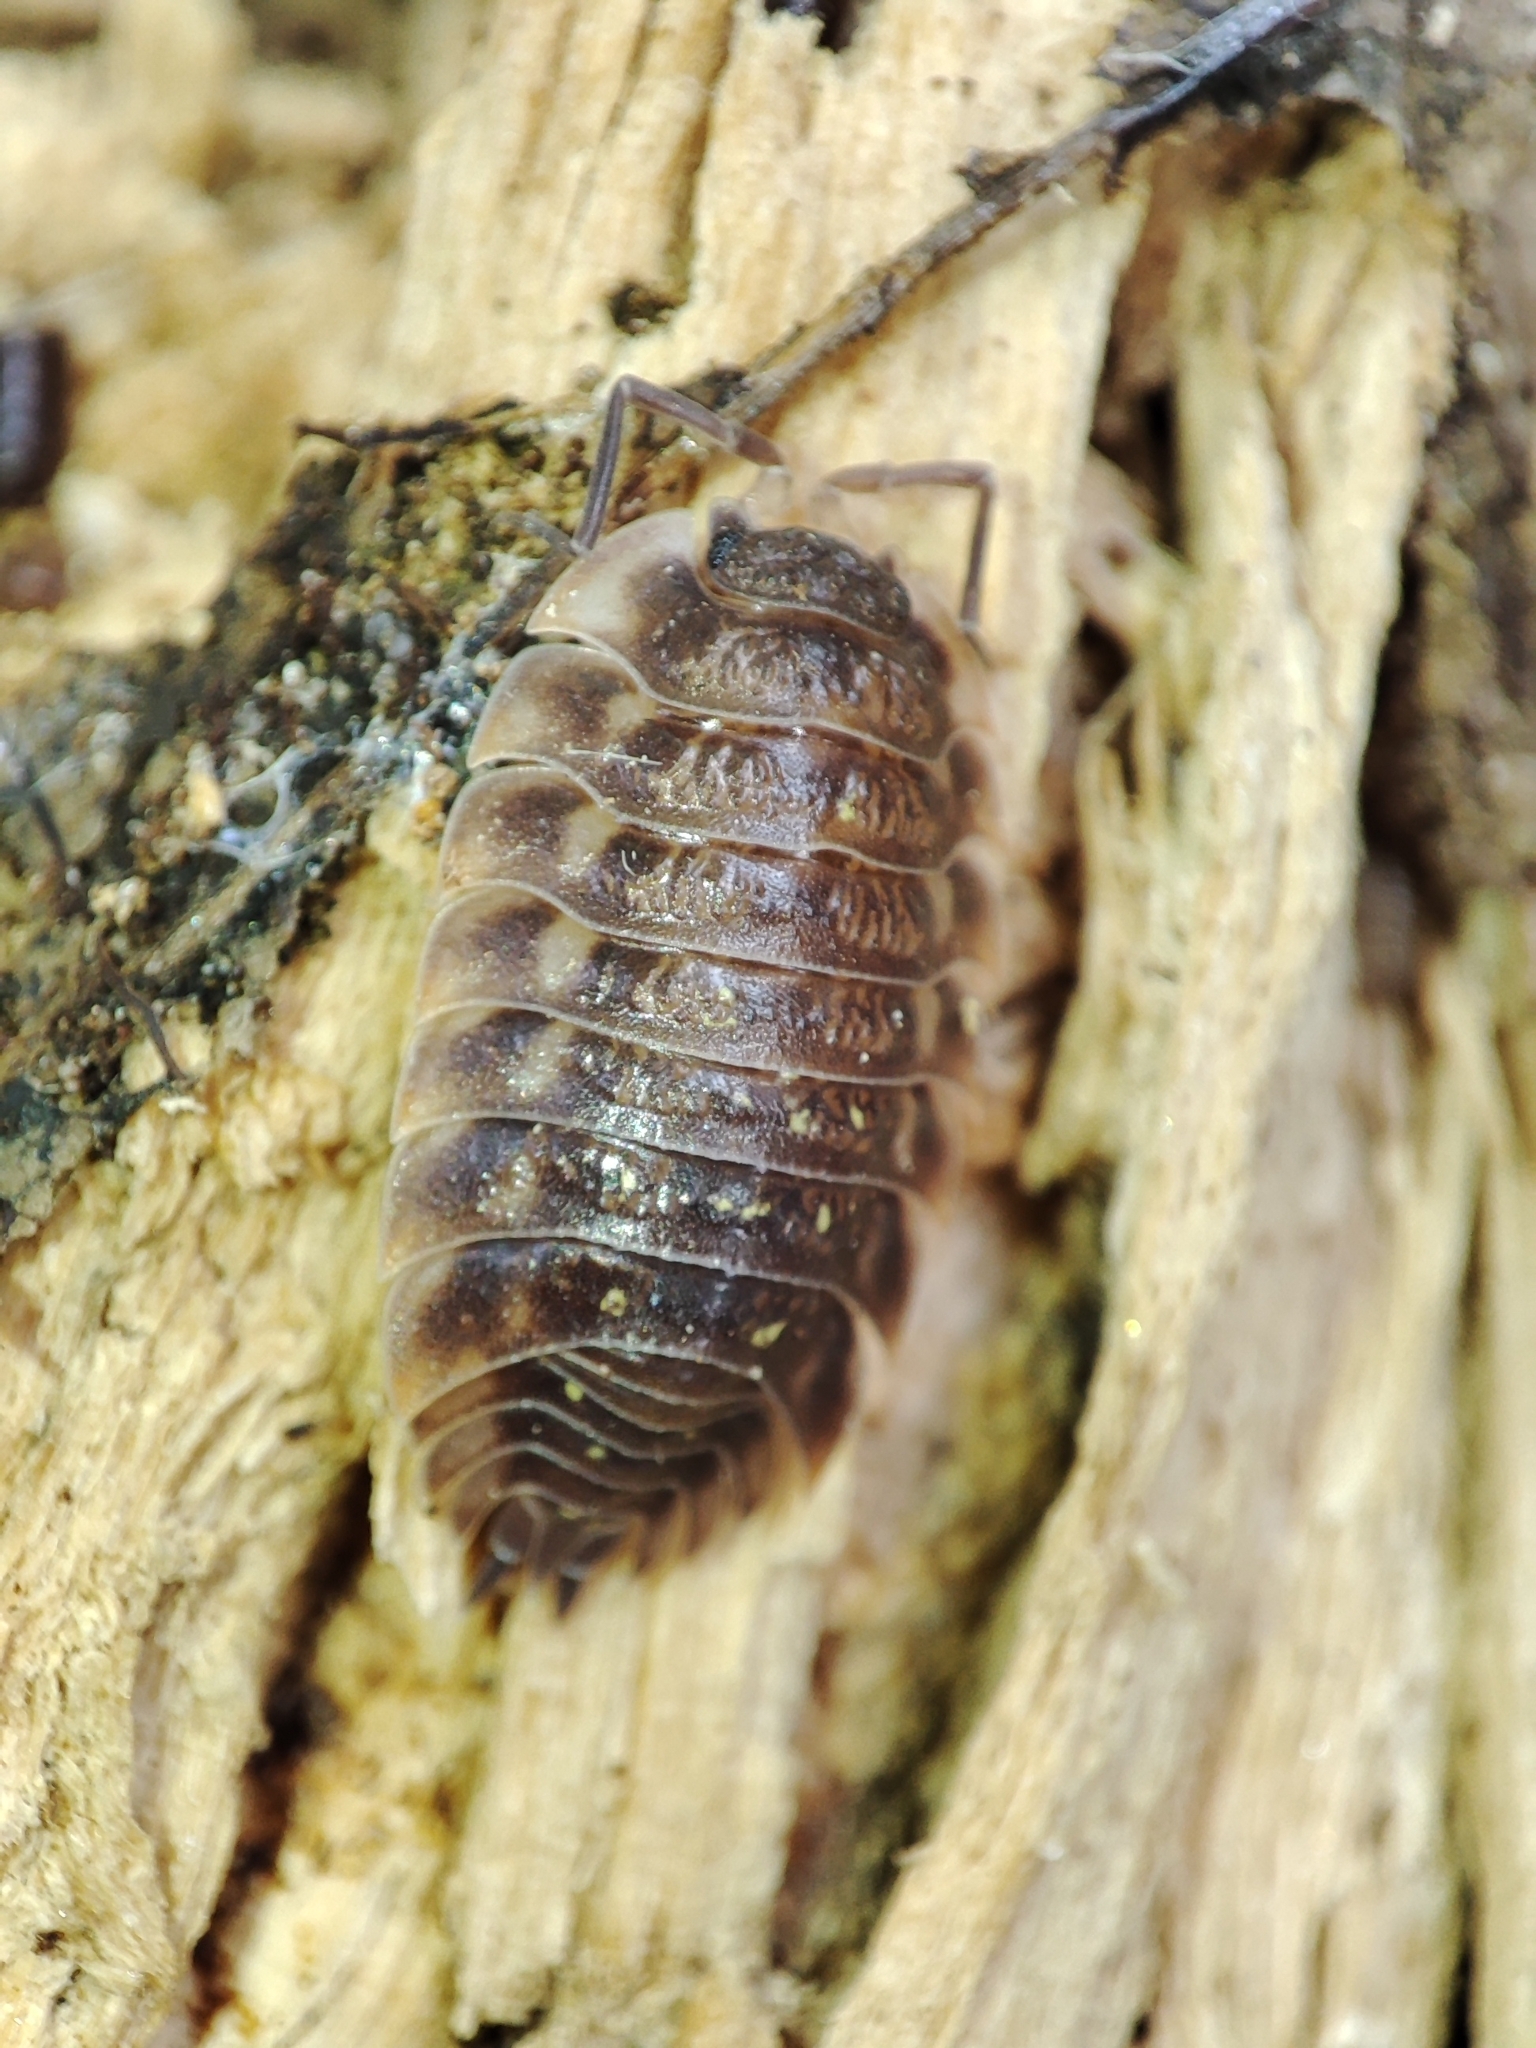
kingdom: Animalia
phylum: Arthropoda
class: Malacostraca
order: Isopoda
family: Oniscidae
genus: Oniscus
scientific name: Oniscus asellus
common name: Common shiny woodlouse
